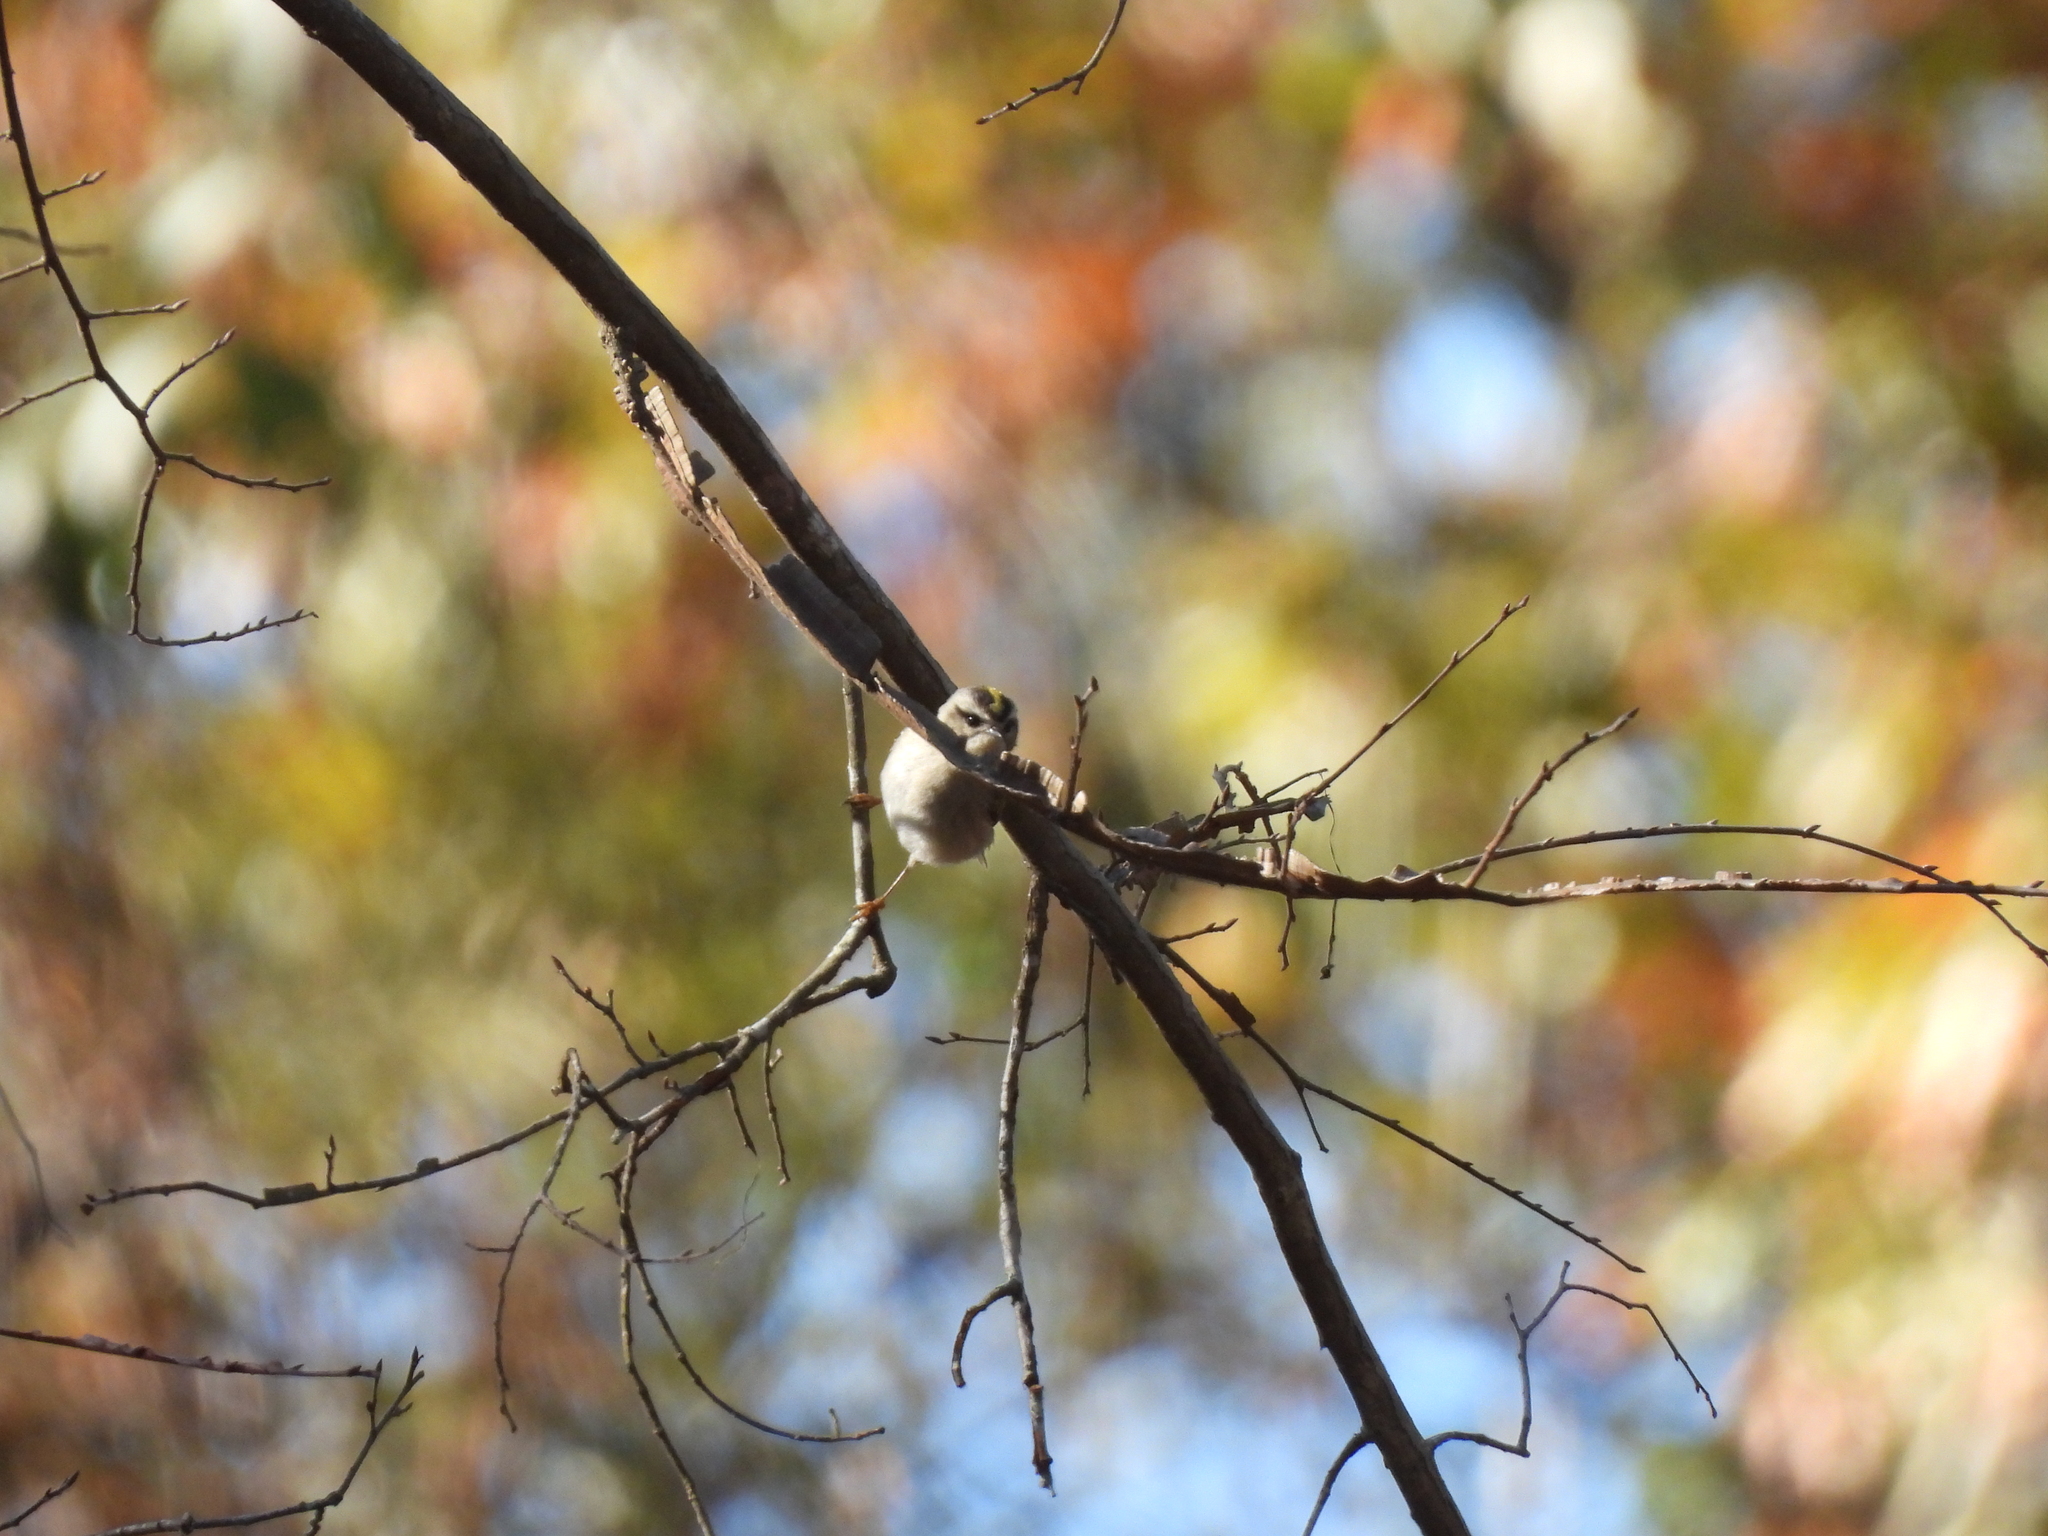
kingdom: Animalia
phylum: Chordata
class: Aves
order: Passeriformes
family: Regulidae
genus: Regulus
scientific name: Regulus satrapa
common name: Golden-crowned kinglet
